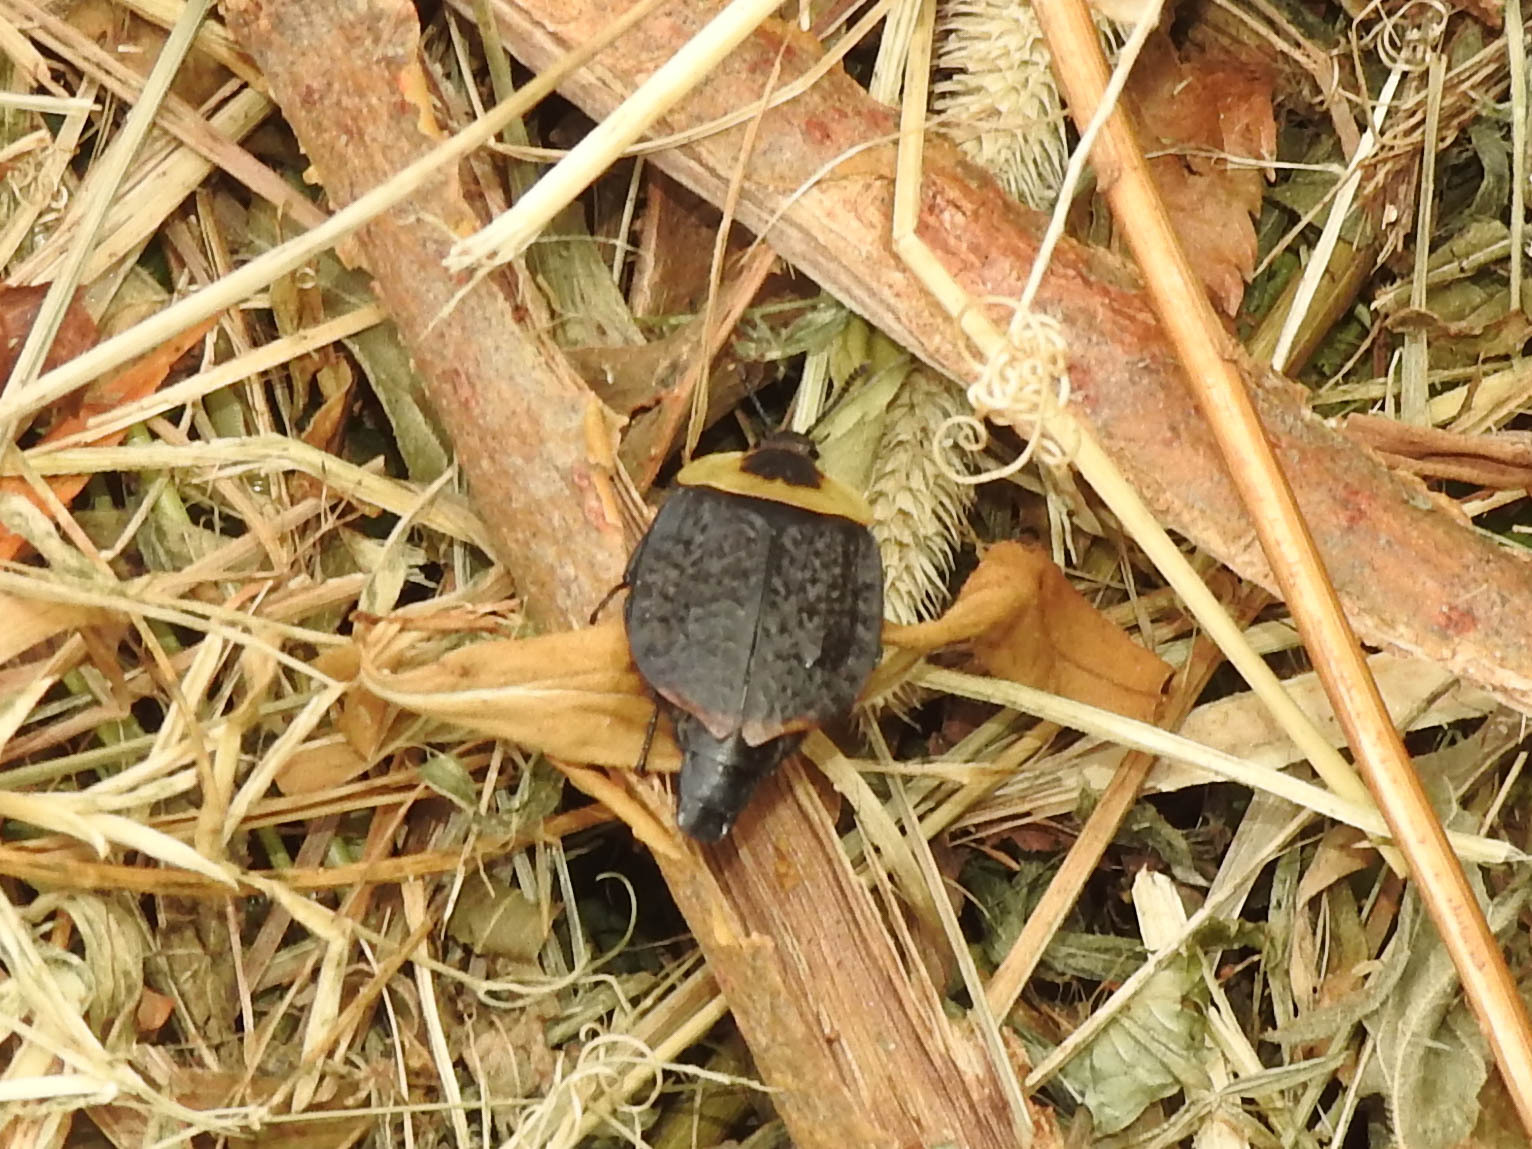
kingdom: Animalia
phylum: Arthropoda
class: Insecta
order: Coleoptera
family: Staphylinidae
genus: Necrophila
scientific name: Necrophila americana
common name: American carrion beetle
